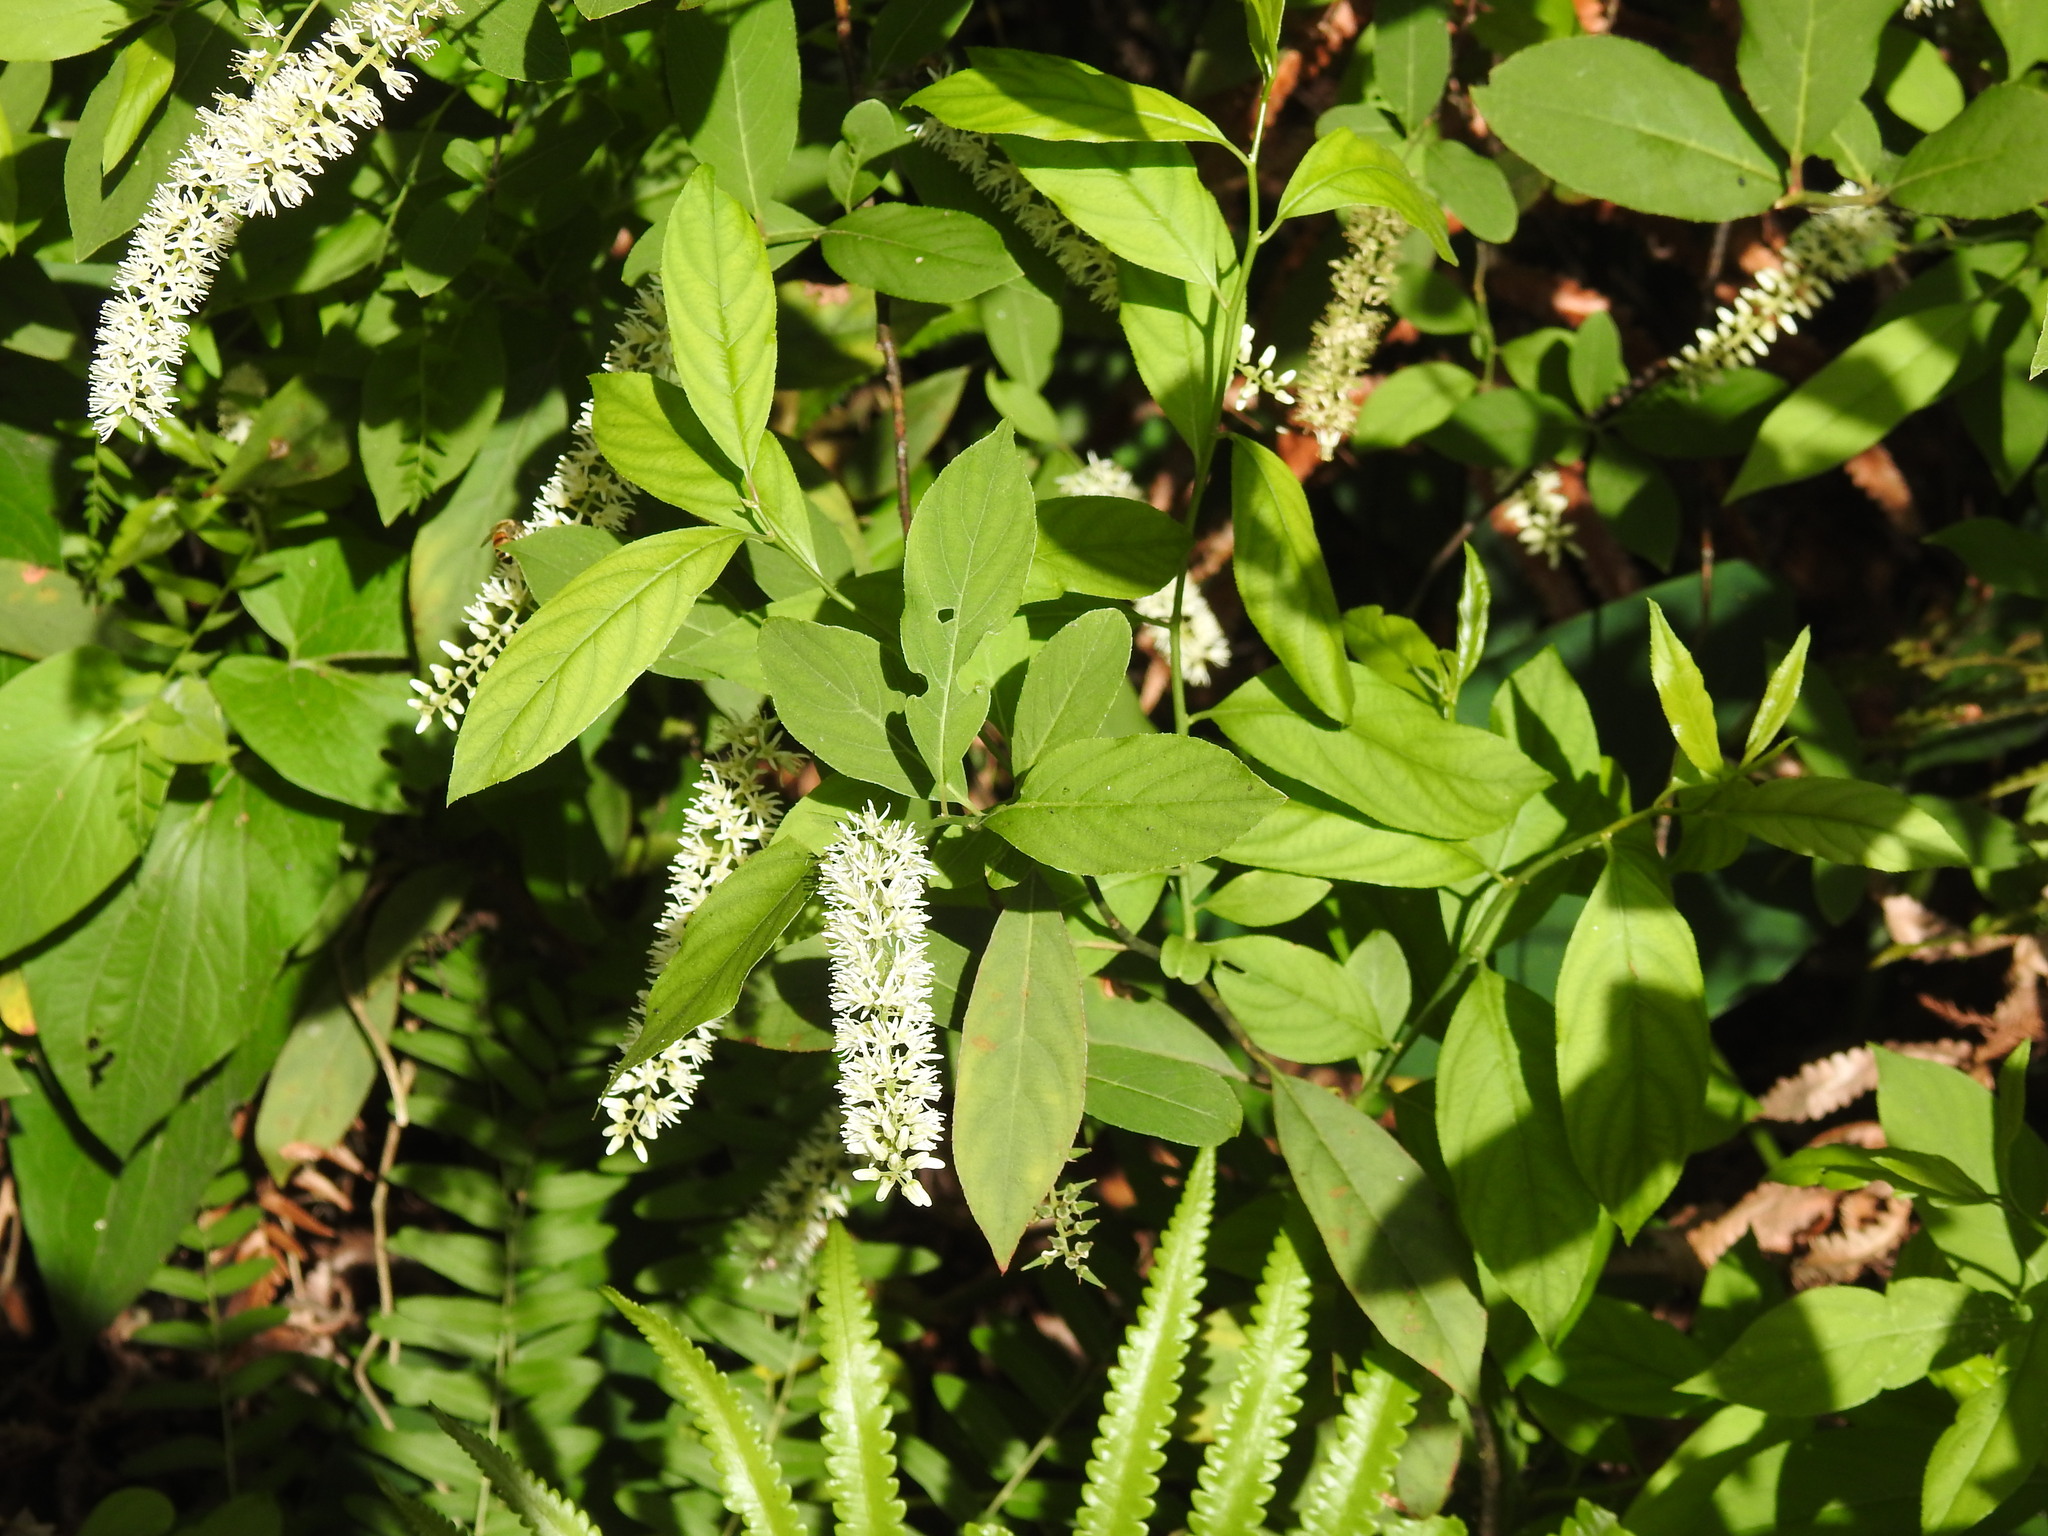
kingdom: Plantae
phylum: Tracheophyta
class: Magnoliopsida
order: Saxifragales
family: Iteaceae
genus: Itea
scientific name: Itea virginica
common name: Sweetspire
